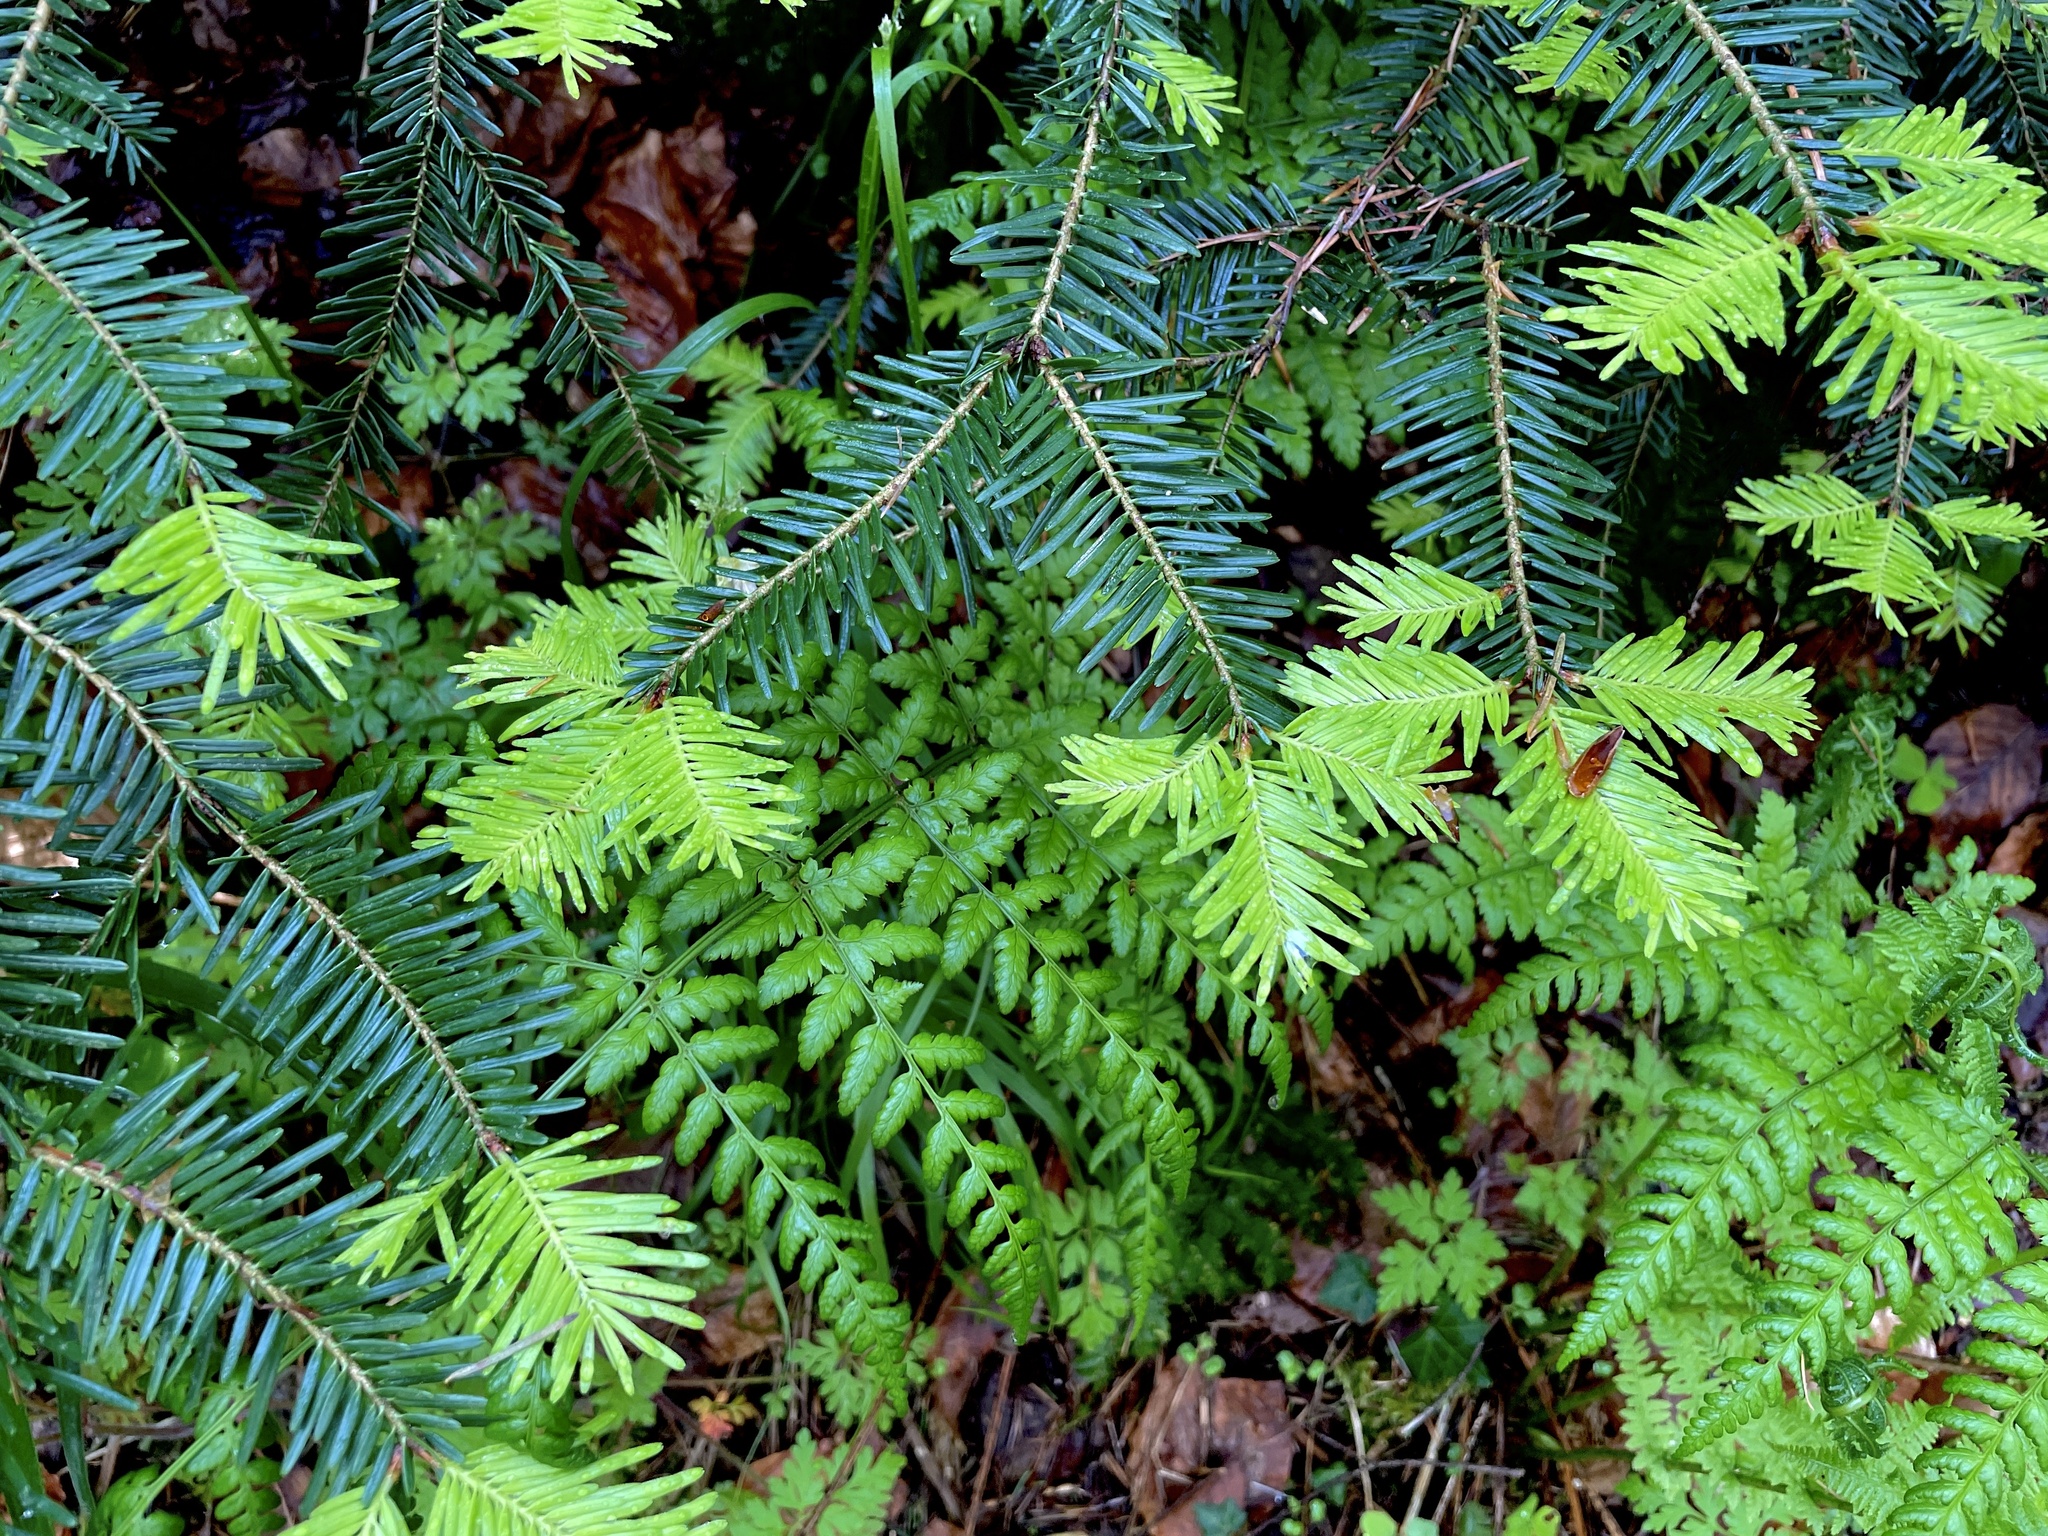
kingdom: Plantae
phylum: Tracheophyta
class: Pinopsida
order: Pinales
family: Pinaceae
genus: Abies
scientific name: Abies alba
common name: Silver fir
